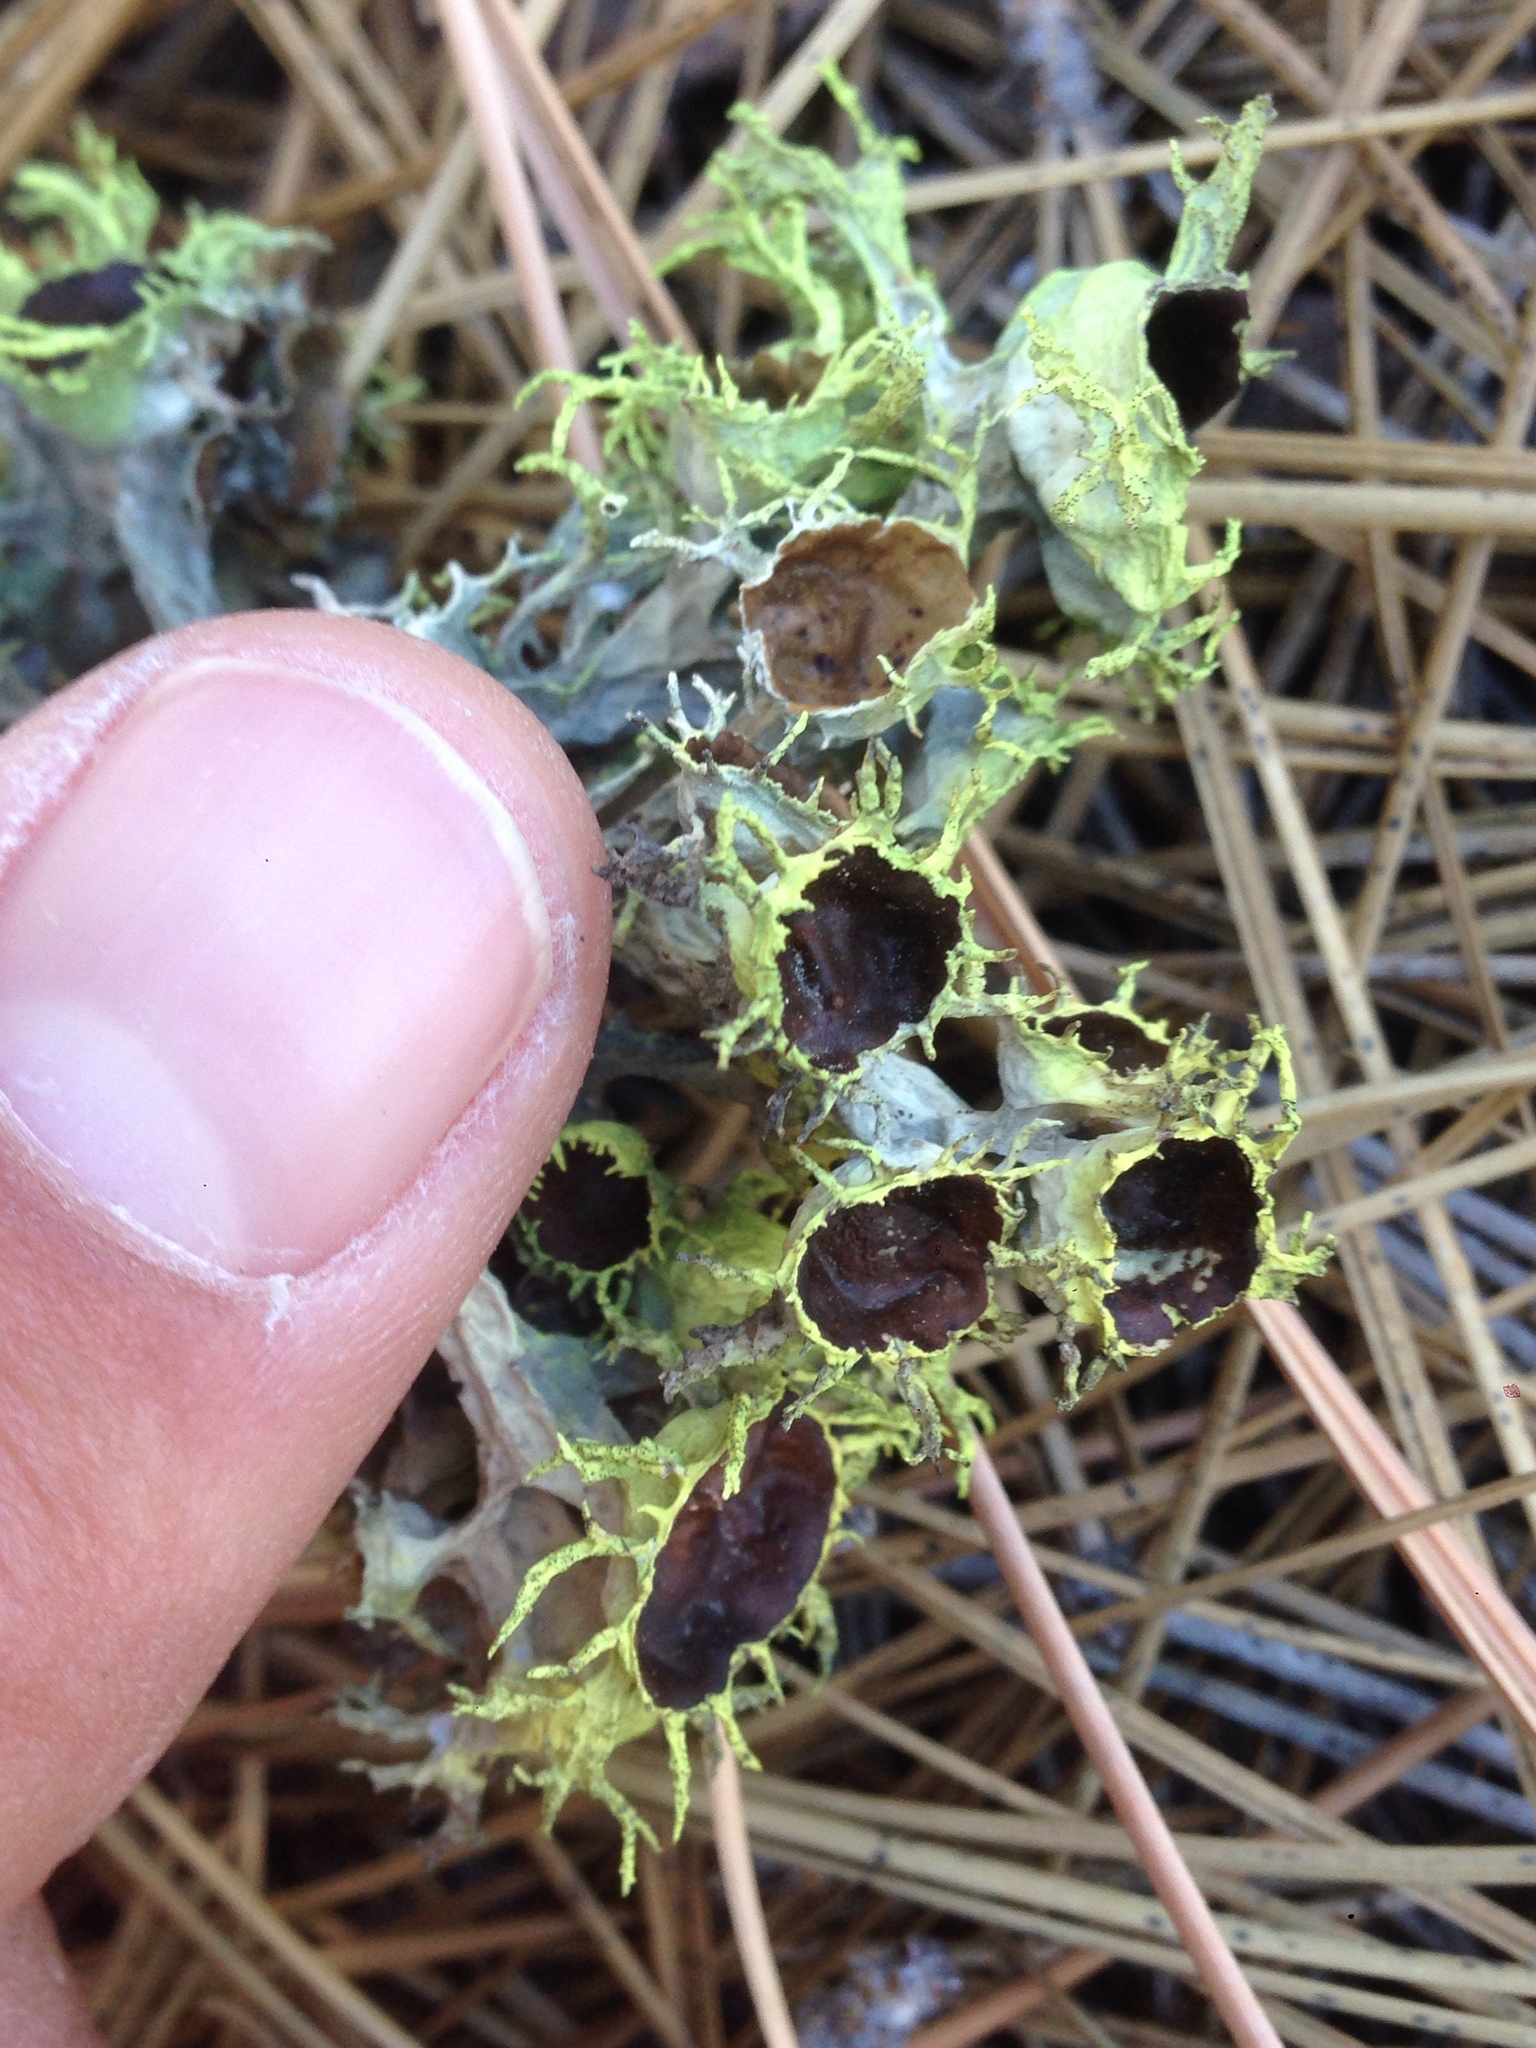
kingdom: Fungi
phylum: Ascomycota
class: Lecanoromycetes
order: Lecanorales
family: Parmeliaceae
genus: Letharia
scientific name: Letharia columbiana
